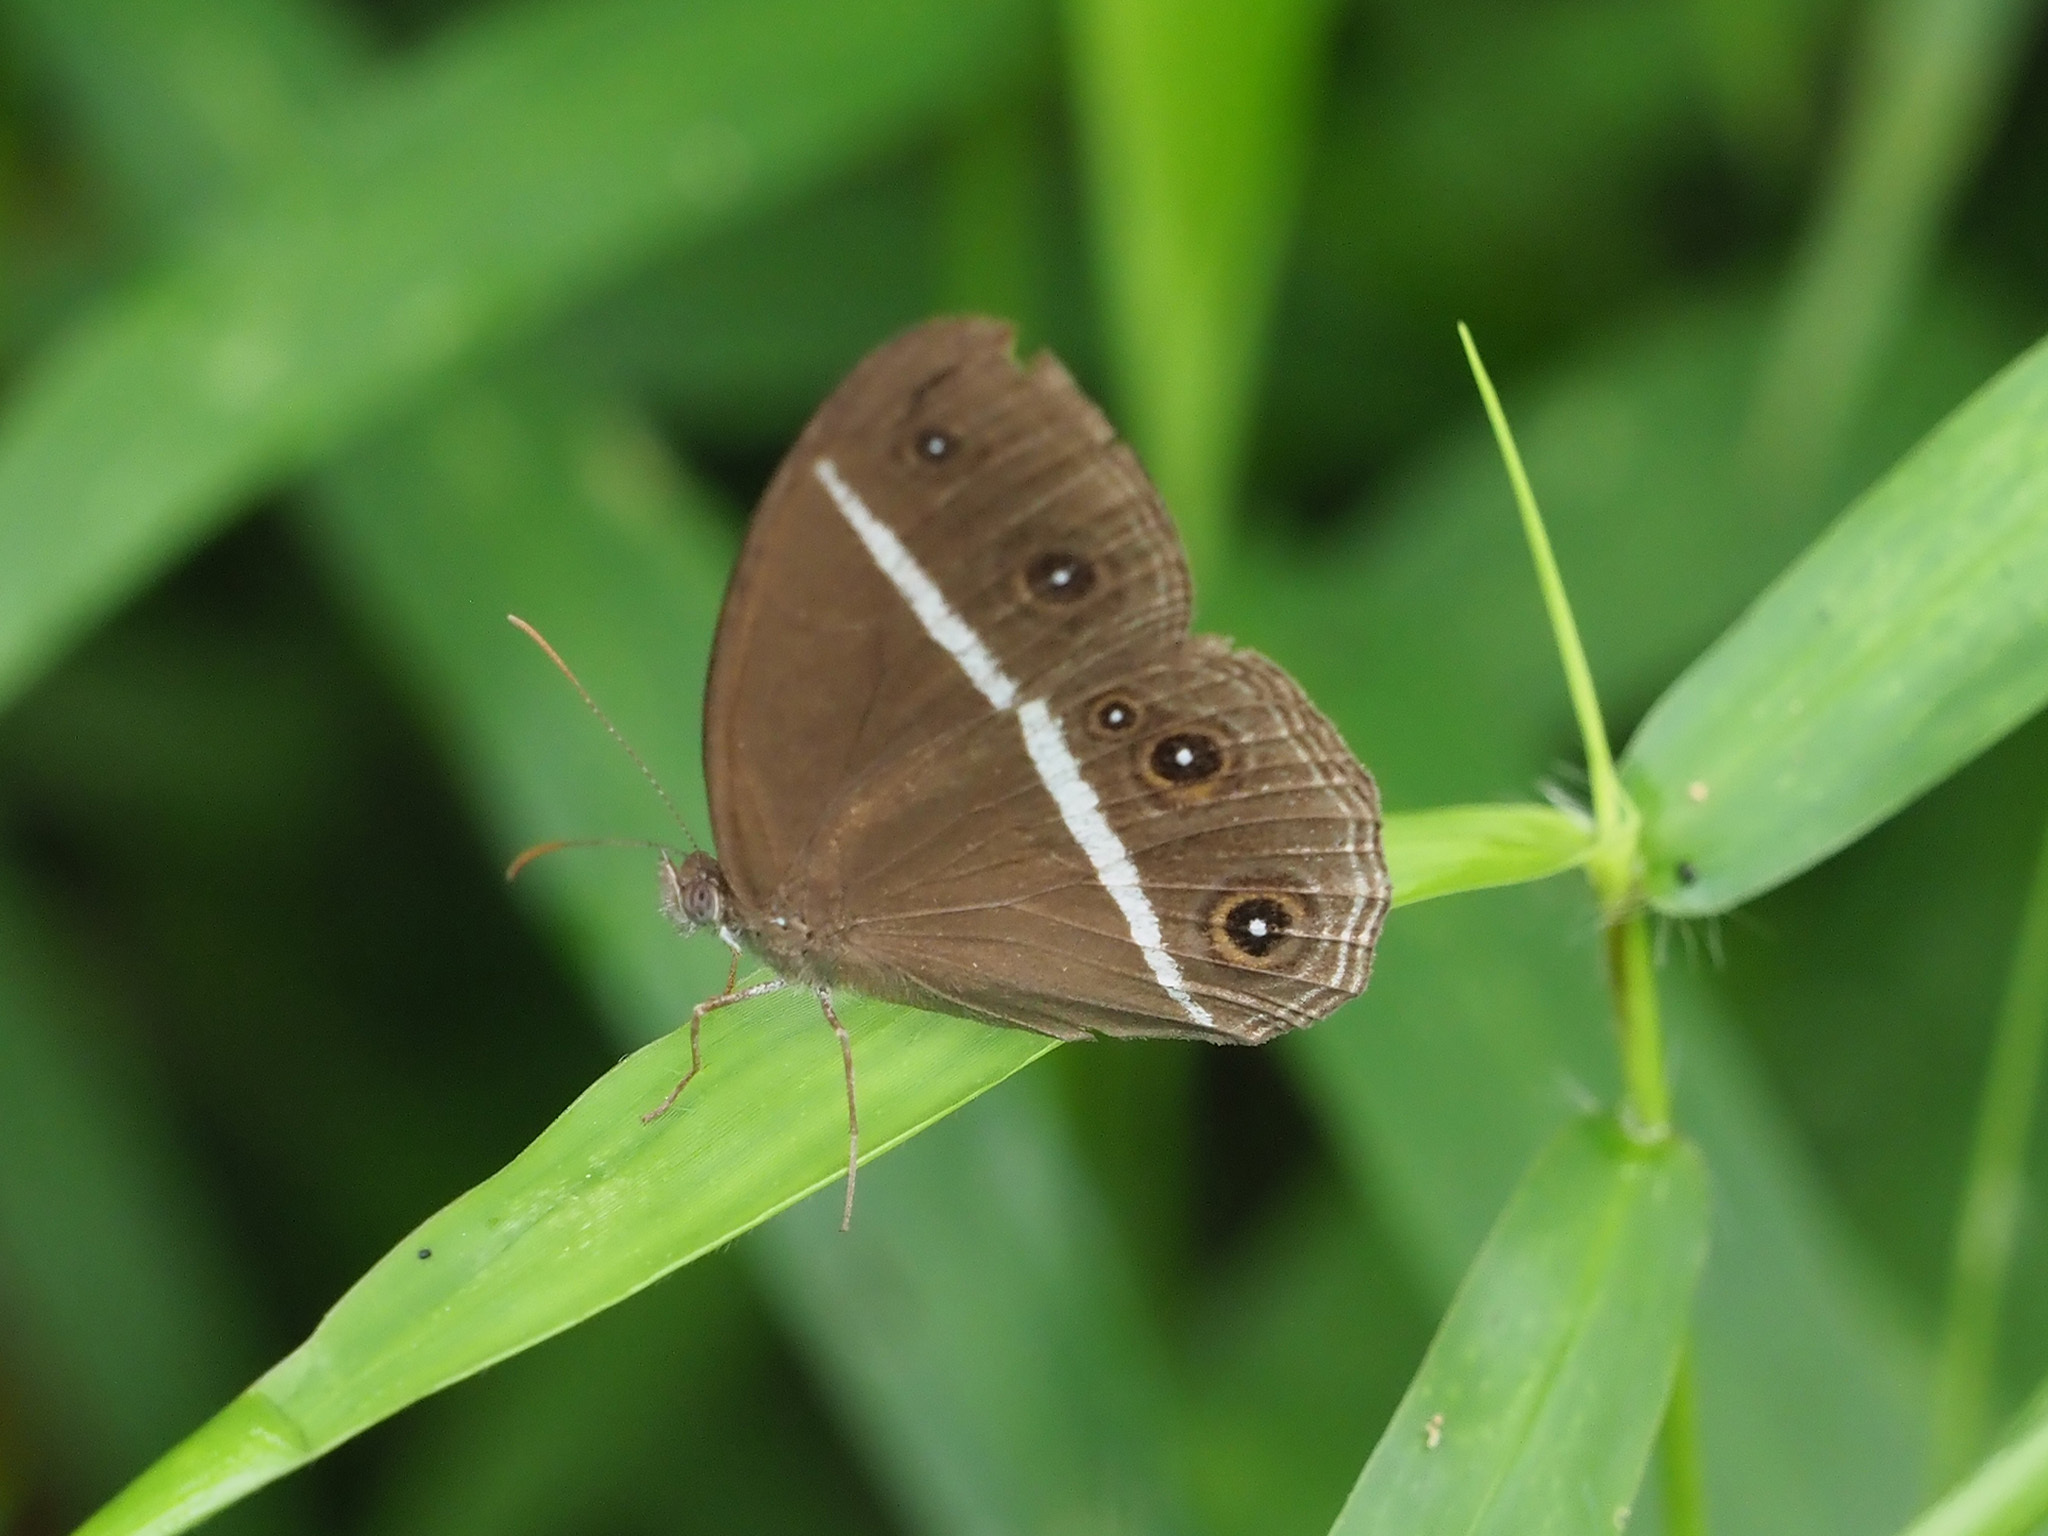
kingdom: Animalia
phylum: Arthropoda
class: Insecta
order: Lepidoptera
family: Nymphalidae
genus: Orsotriaena
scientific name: Orsotriaena medus
